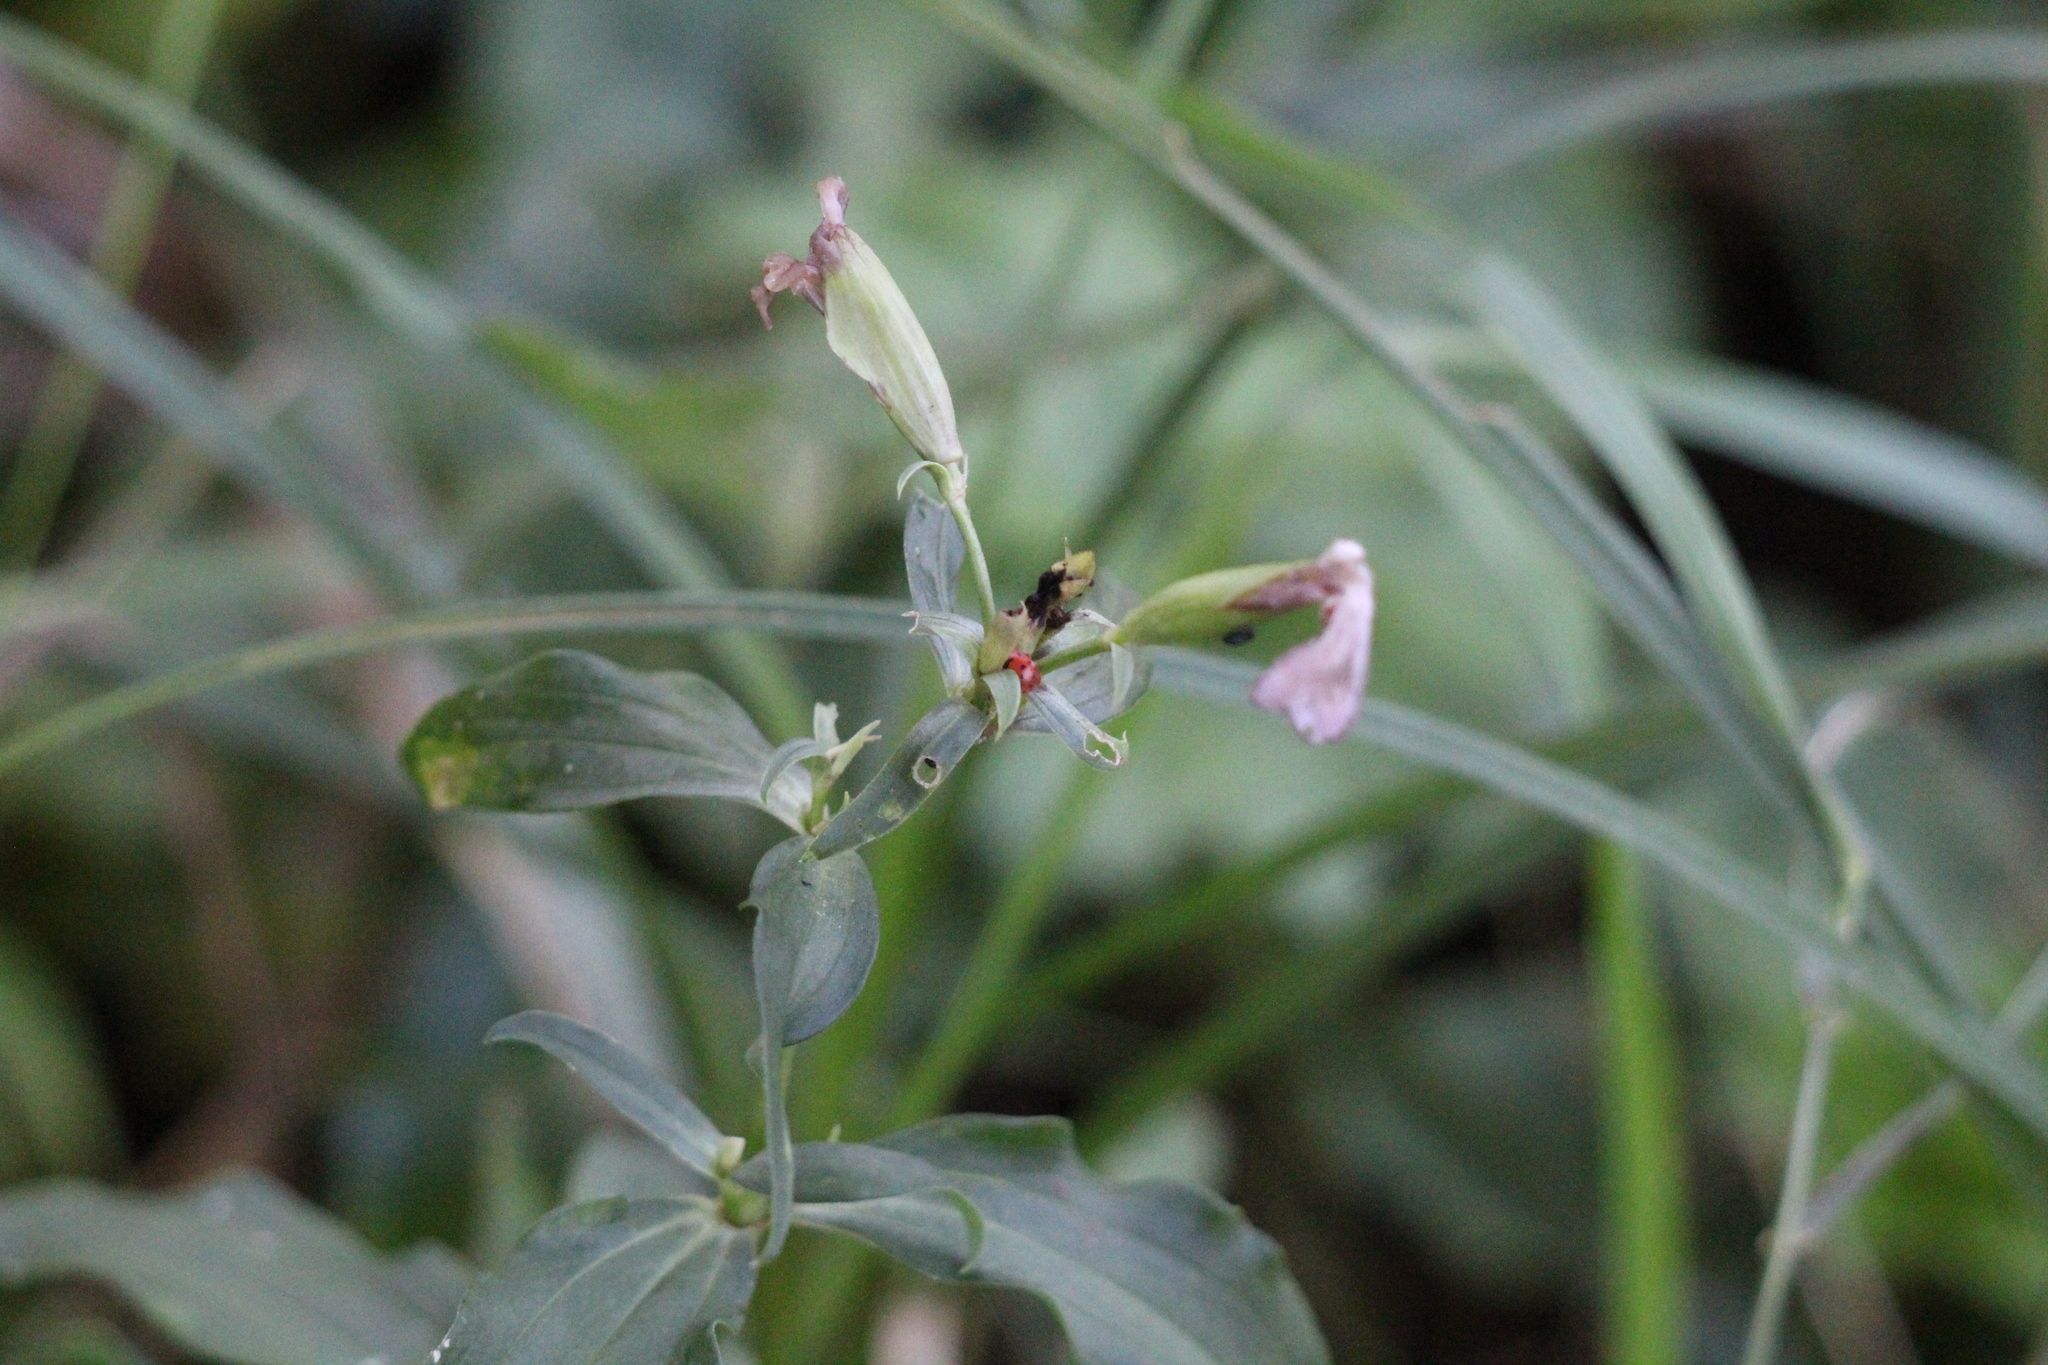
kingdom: Animalia
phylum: Arthropoda
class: Insecta
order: Coleoptera
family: Coccinellidae
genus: Subcoccinella
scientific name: Subcoccinella vigintiquatuorpunctata
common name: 24-spot ladybird
